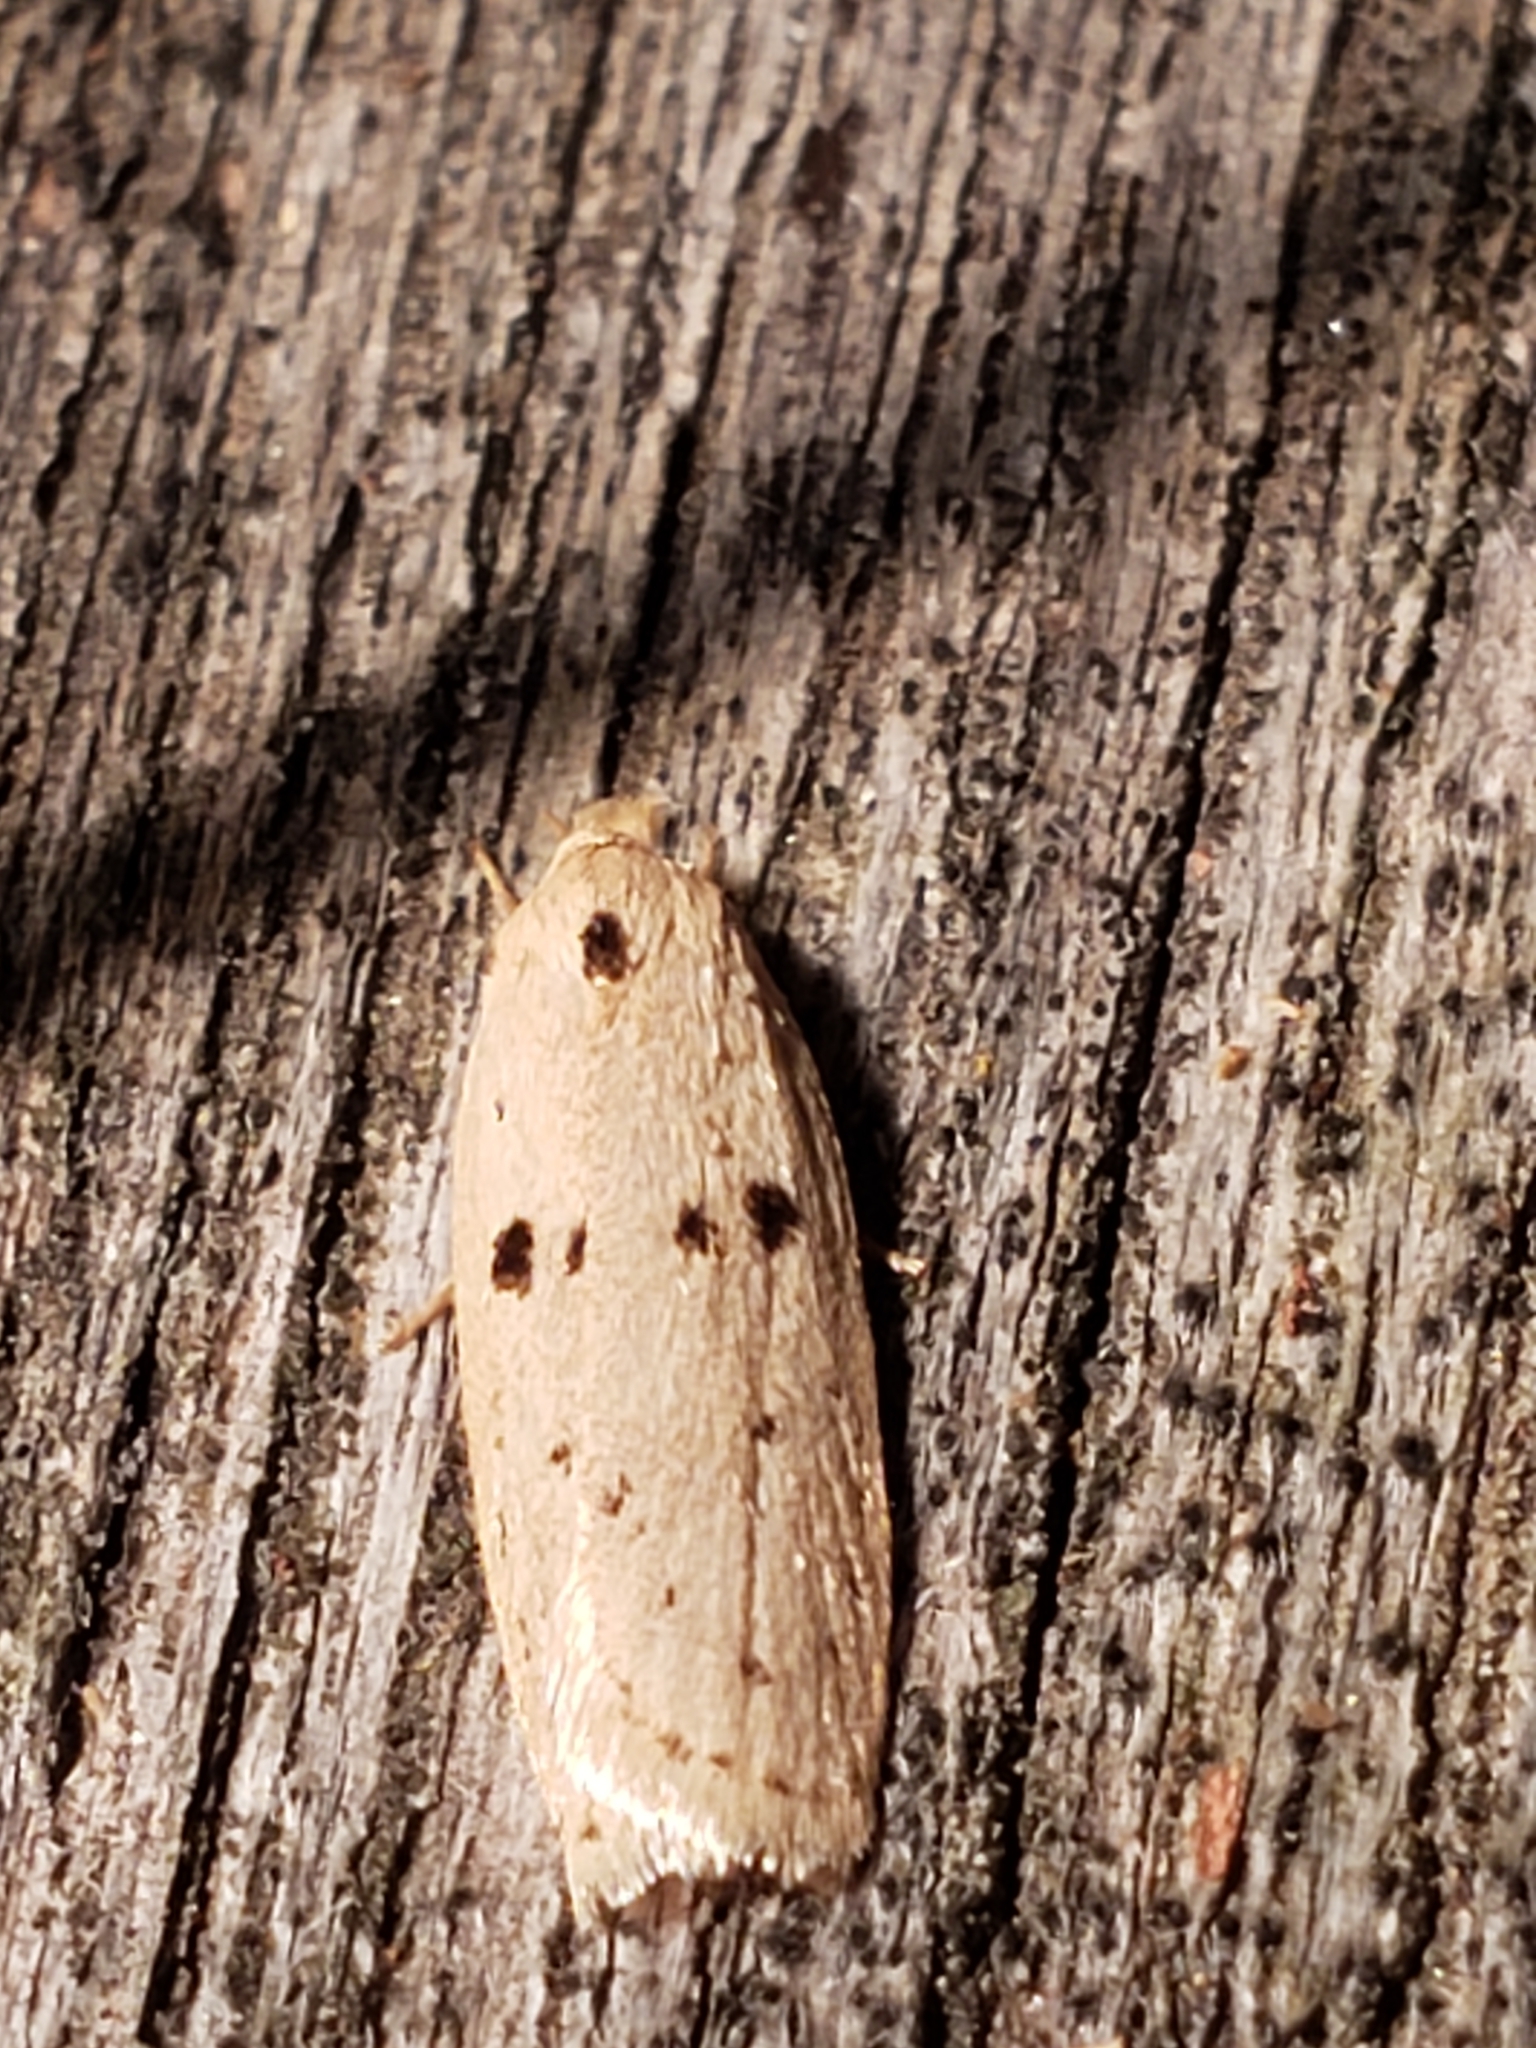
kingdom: Animalia
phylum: Arthropoda
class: Insecta
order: Lepidoptera
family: Peleopodidae
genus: Scythropiodes
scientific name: Scythropiodes issikii
